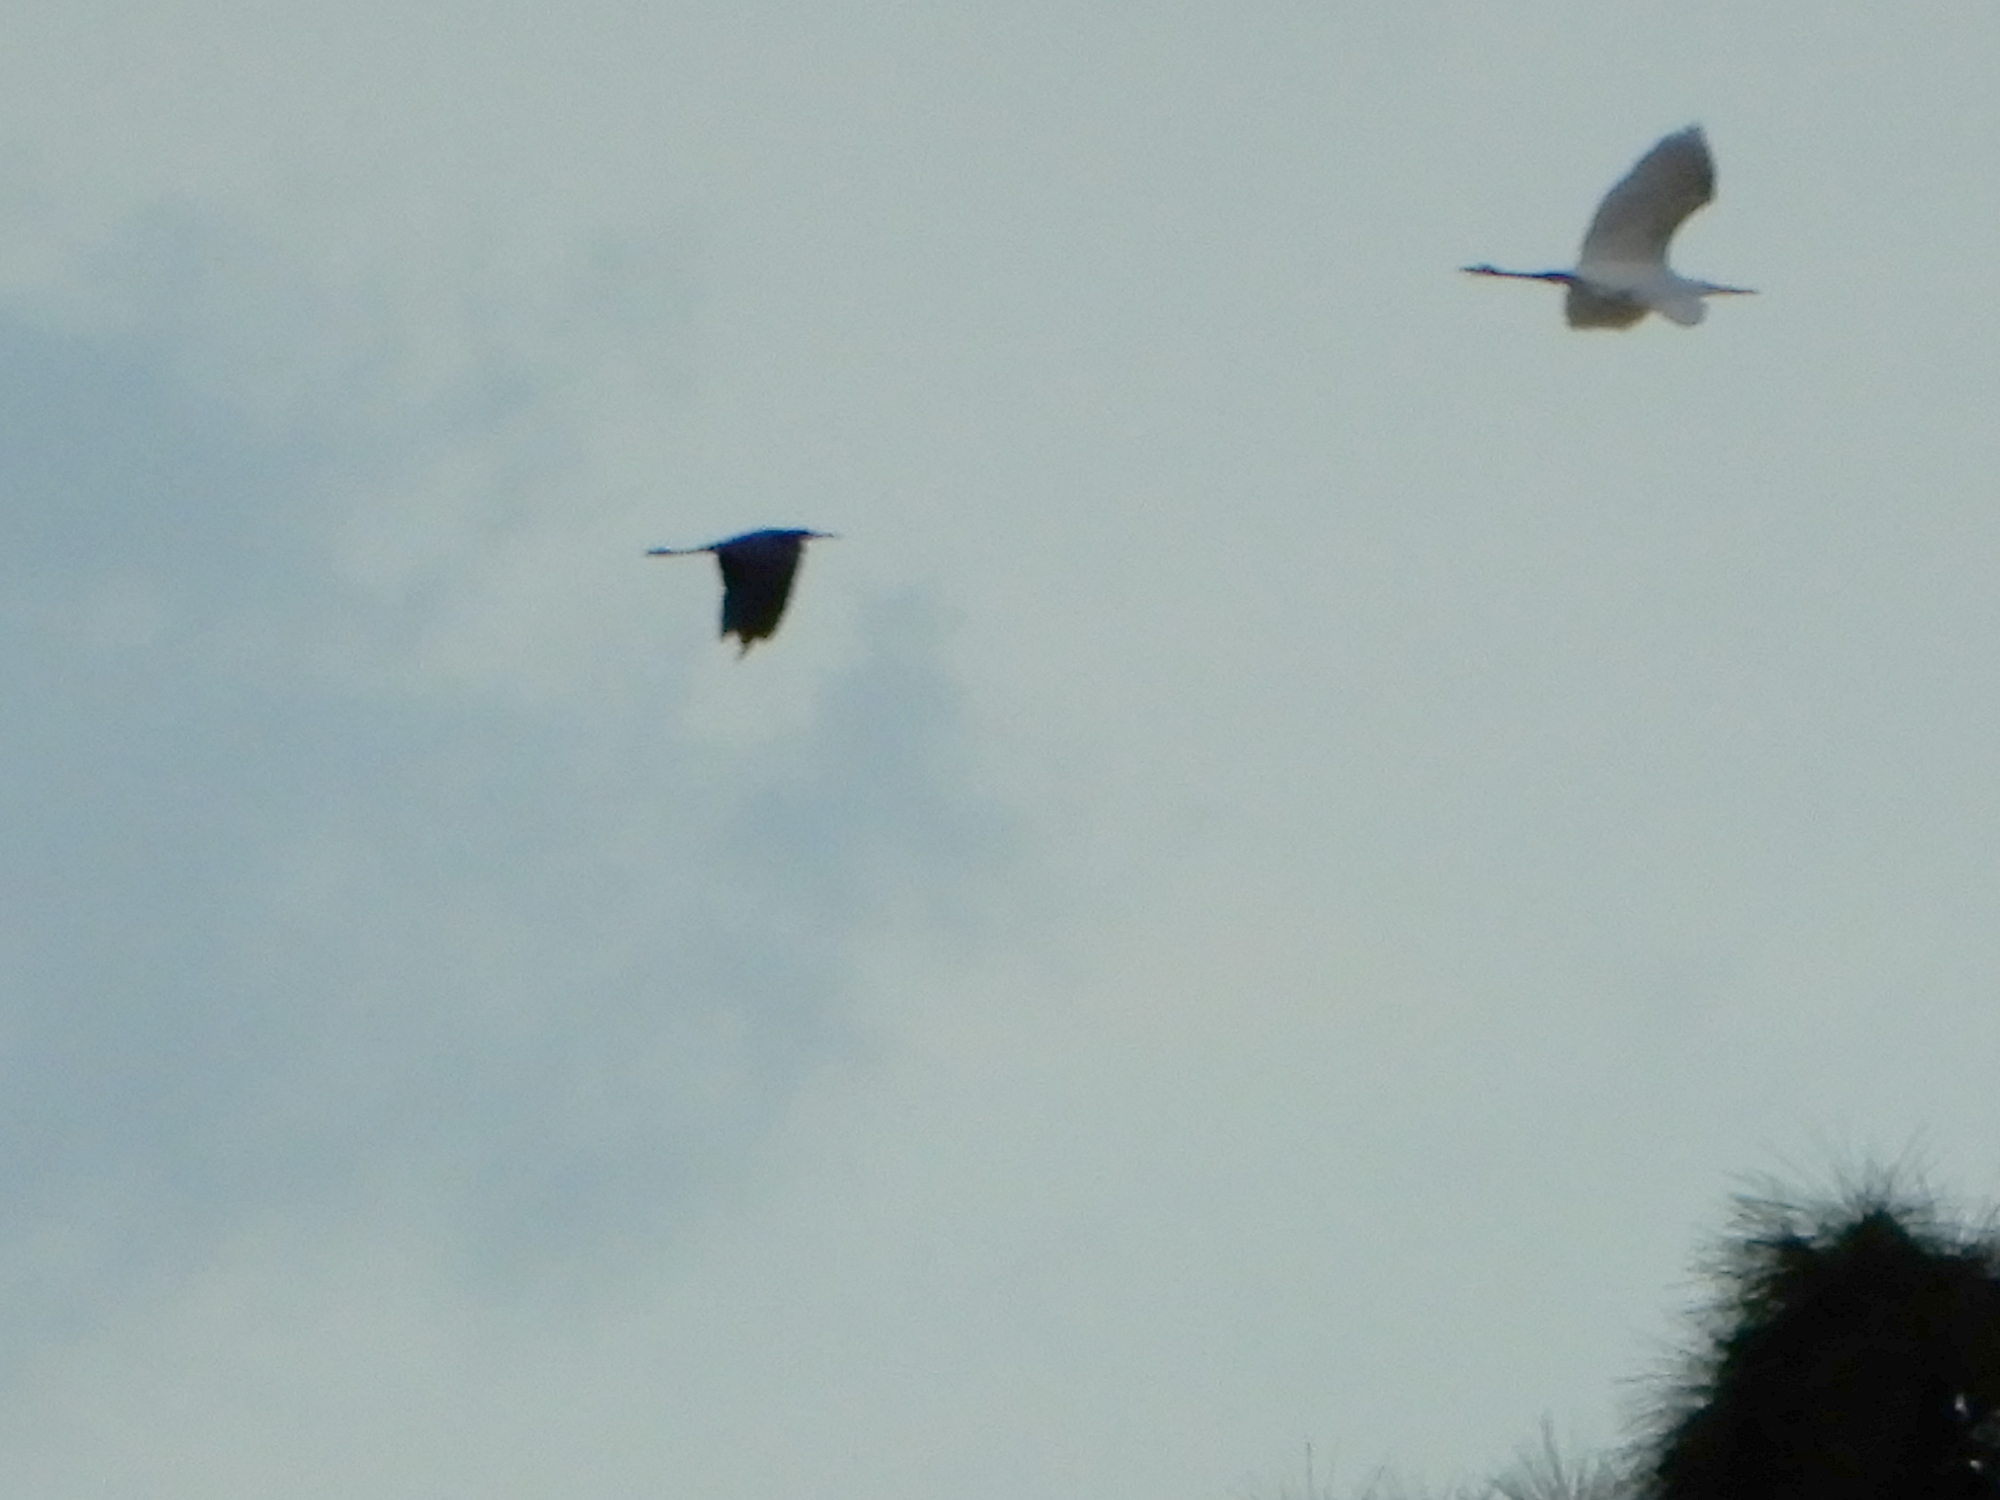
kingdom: Animalia
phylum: Chordata
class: Aves
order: Pelecaniformes
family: Ardeidae
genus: Ardea
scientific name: Ardea alba
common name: Great egret
